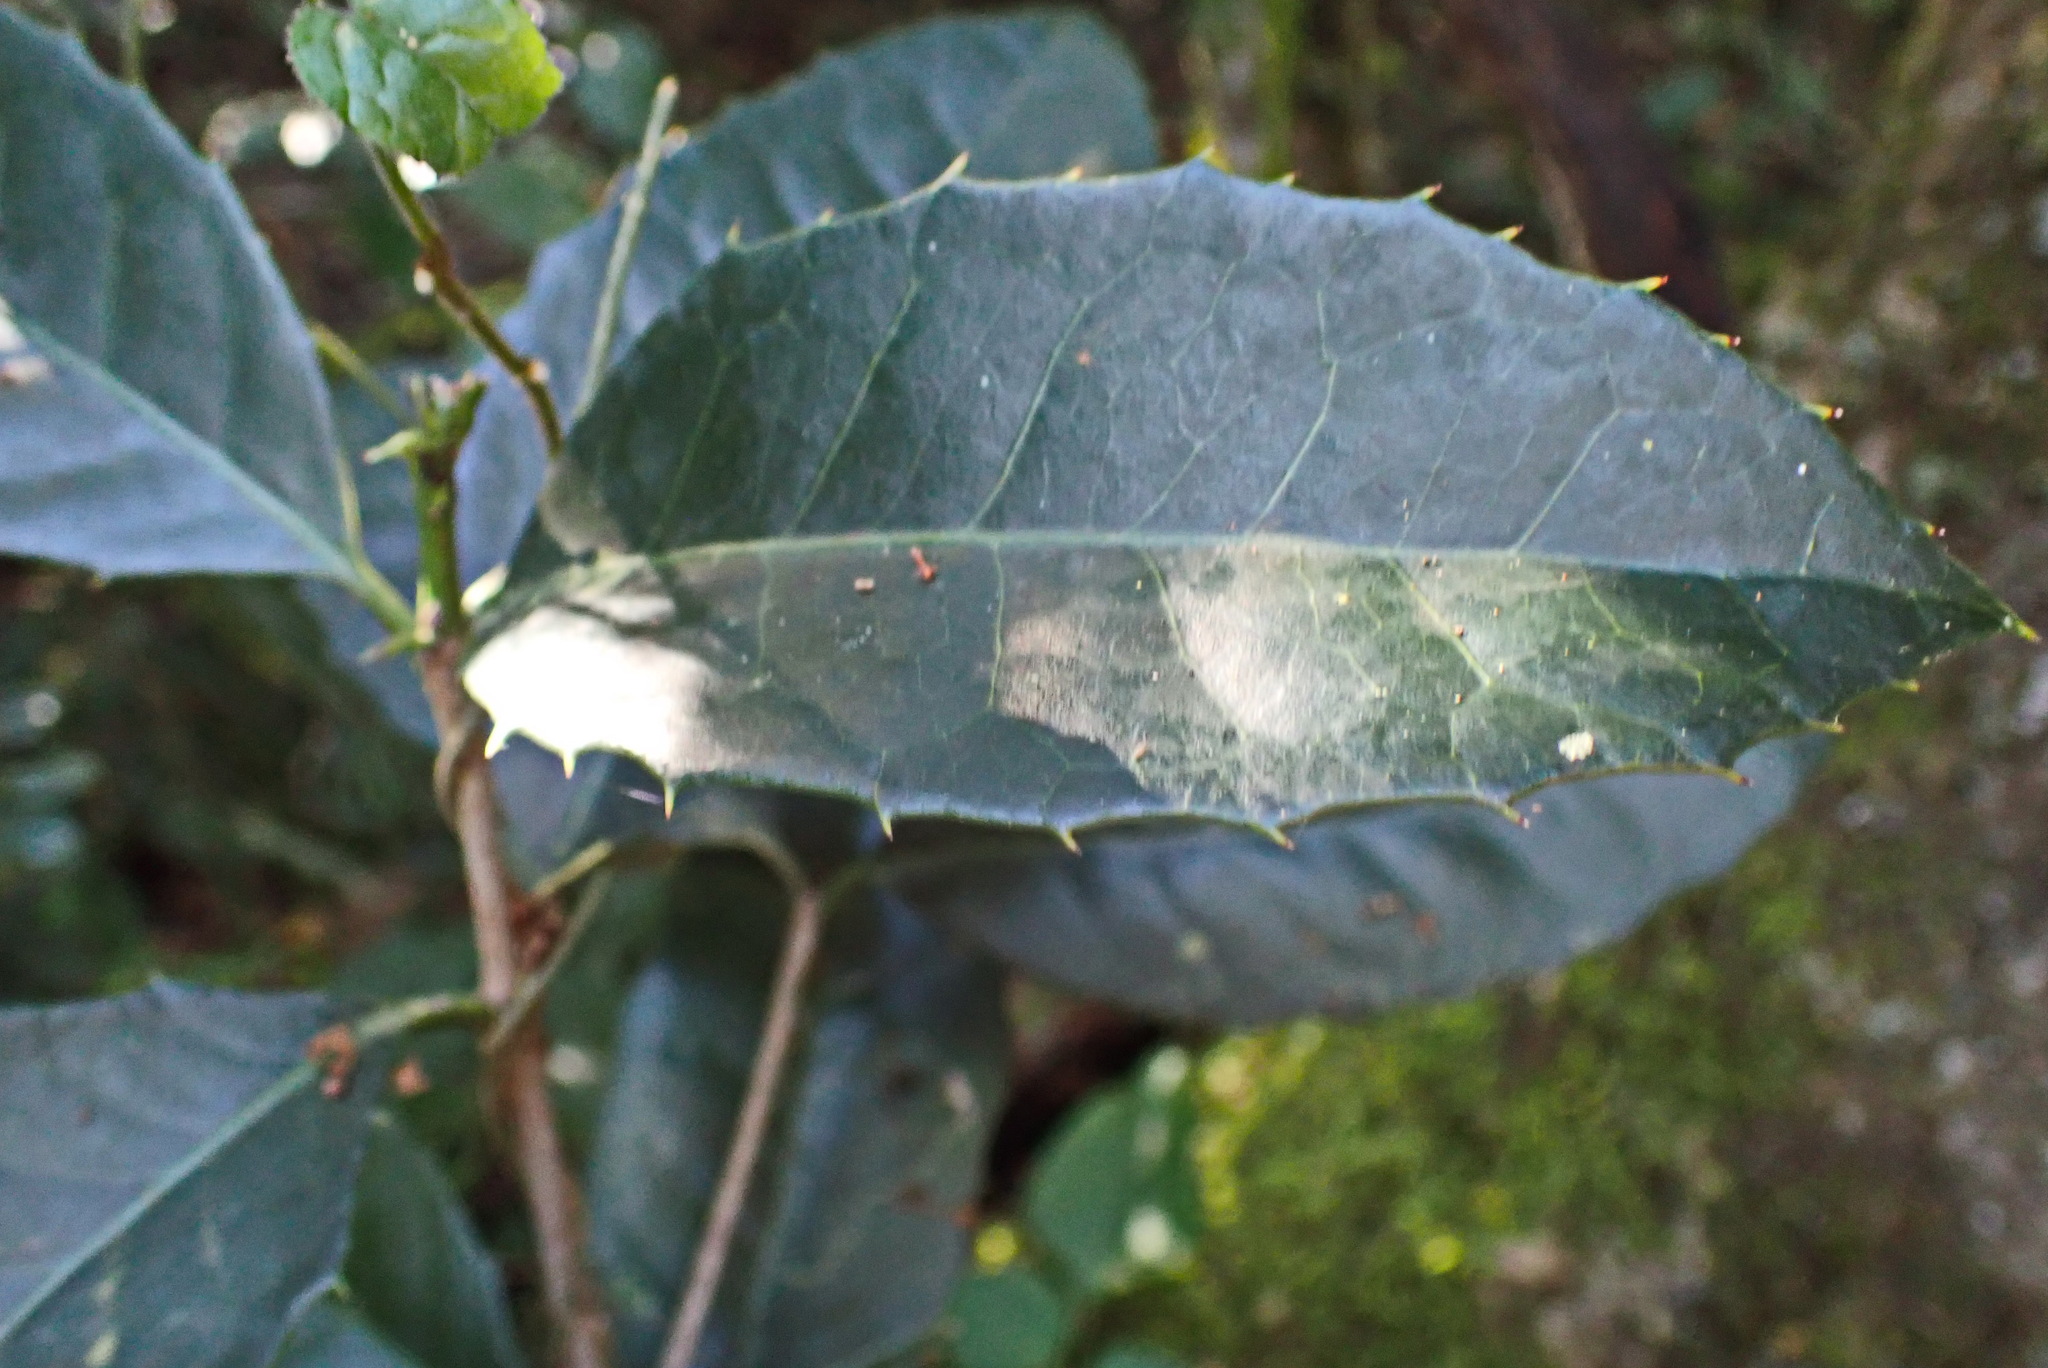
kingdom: Plantae
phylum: Tracheophyta
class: Magnoliopsida
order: Celastrales
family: Celastraceae
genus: Elaeodendron
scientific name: Elaeodendron croceum
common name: Saffron
